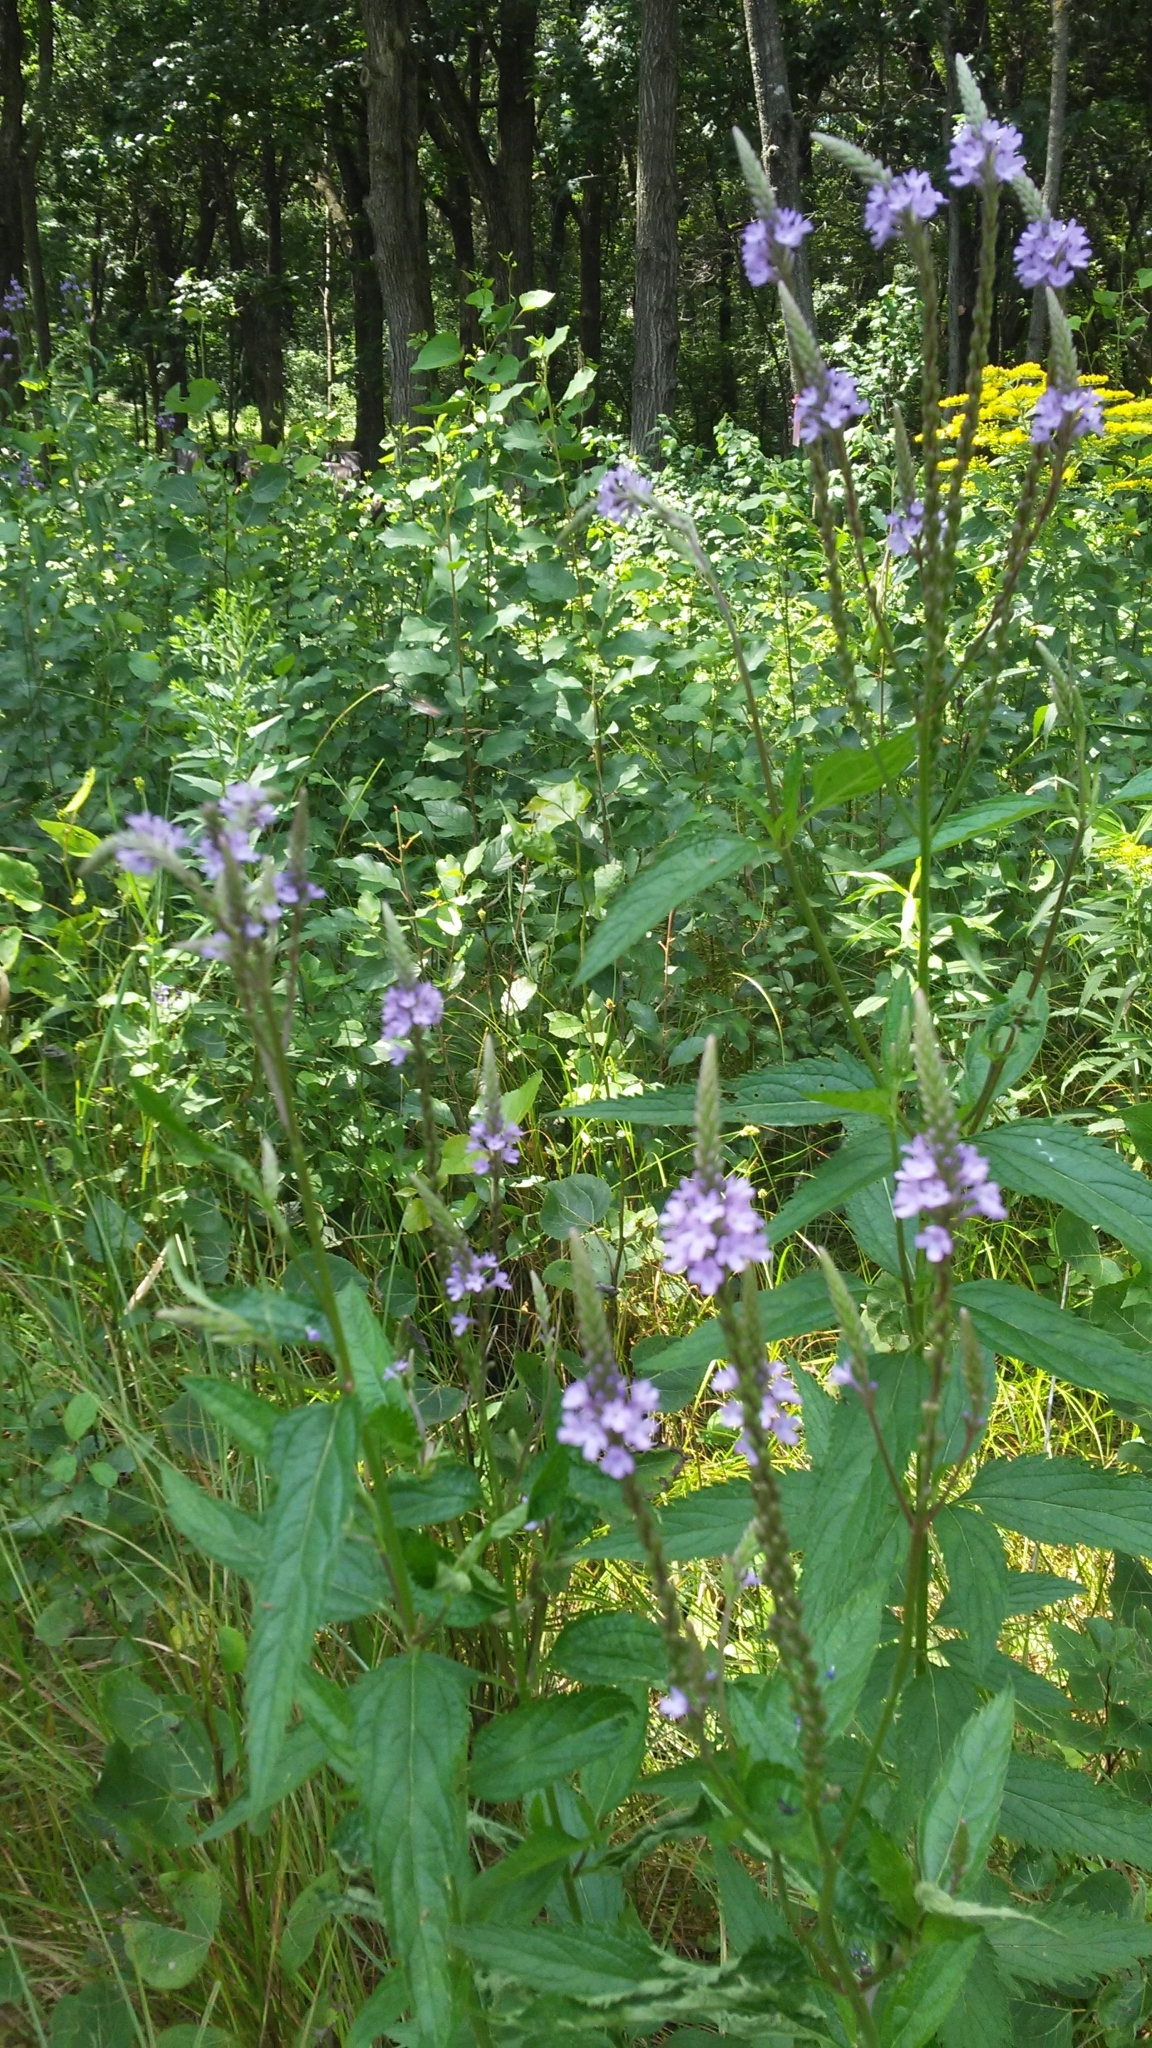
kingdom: Plantae
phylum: Tracheophyta
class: Magnoliopsida
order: Lamiales
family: Verbenaceae
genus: Verbena
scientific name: Verbena hastata
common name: American blue vervain
